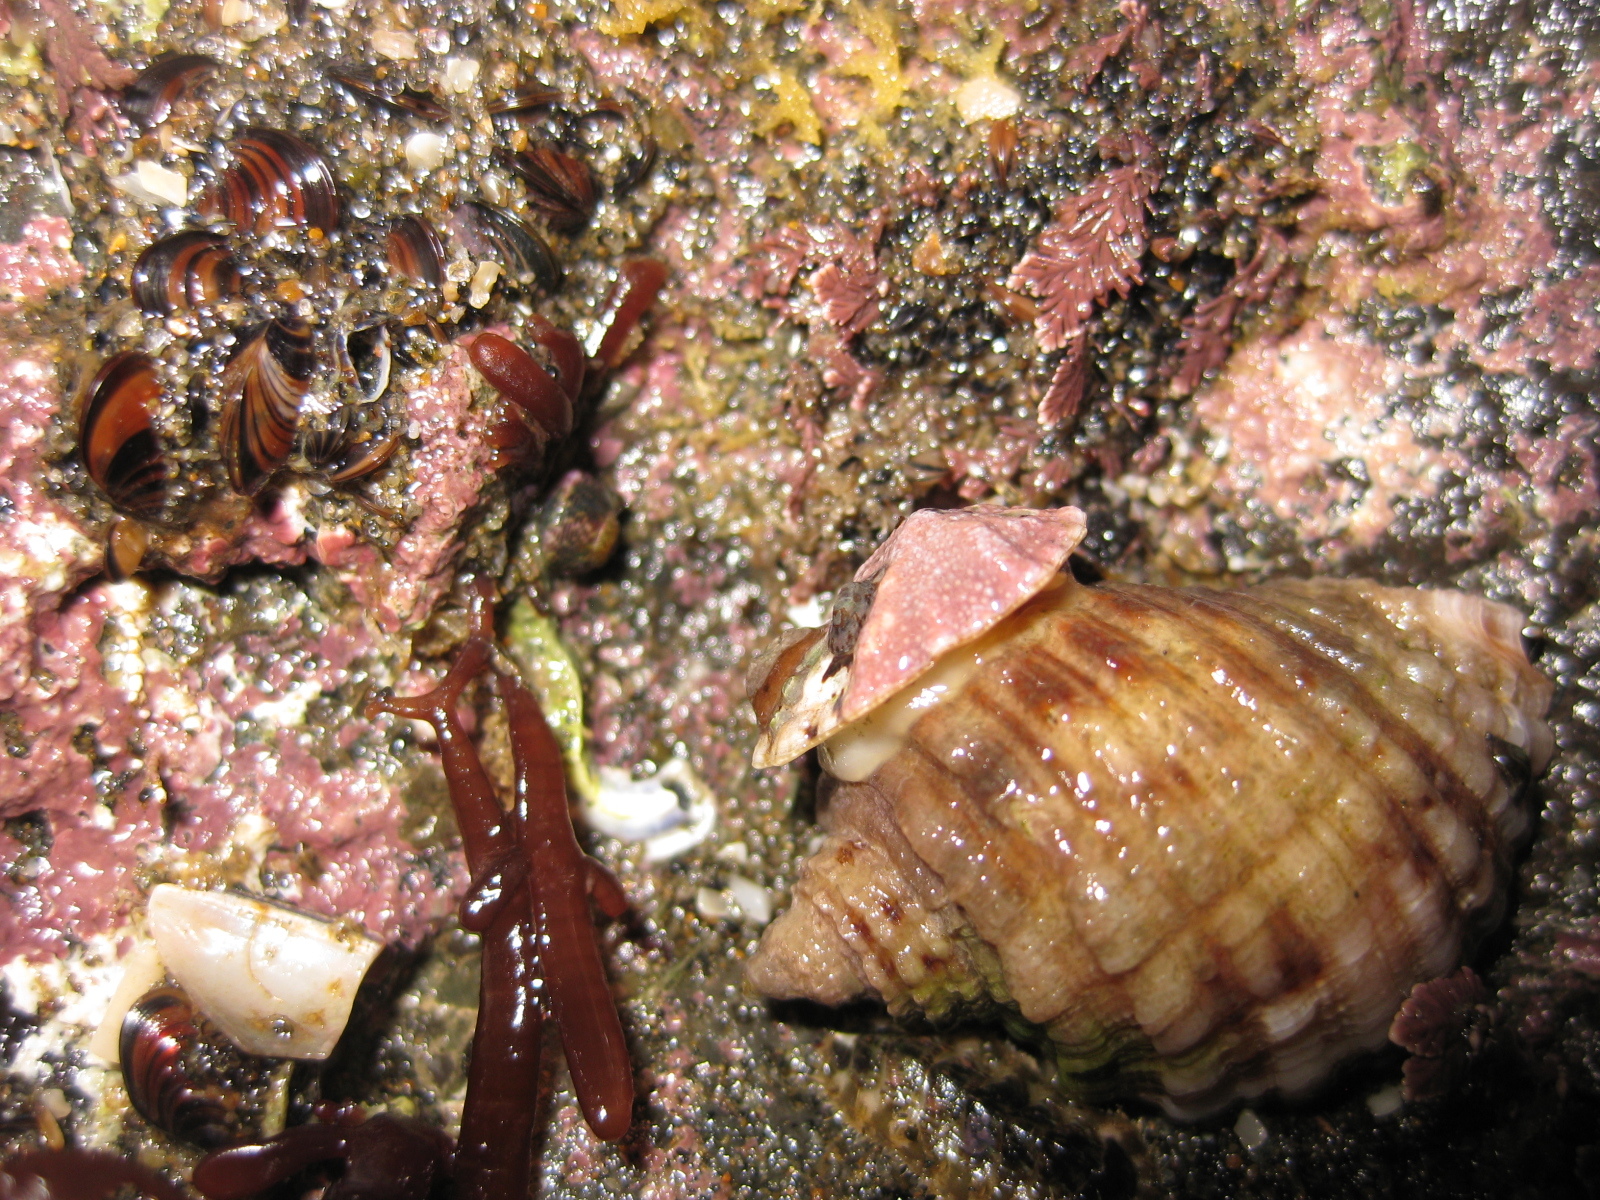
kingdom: Animalia
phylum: Mollusca
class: Gastropoda
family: Lottiidae
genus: Patelloida
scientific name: Patelloida corticata
